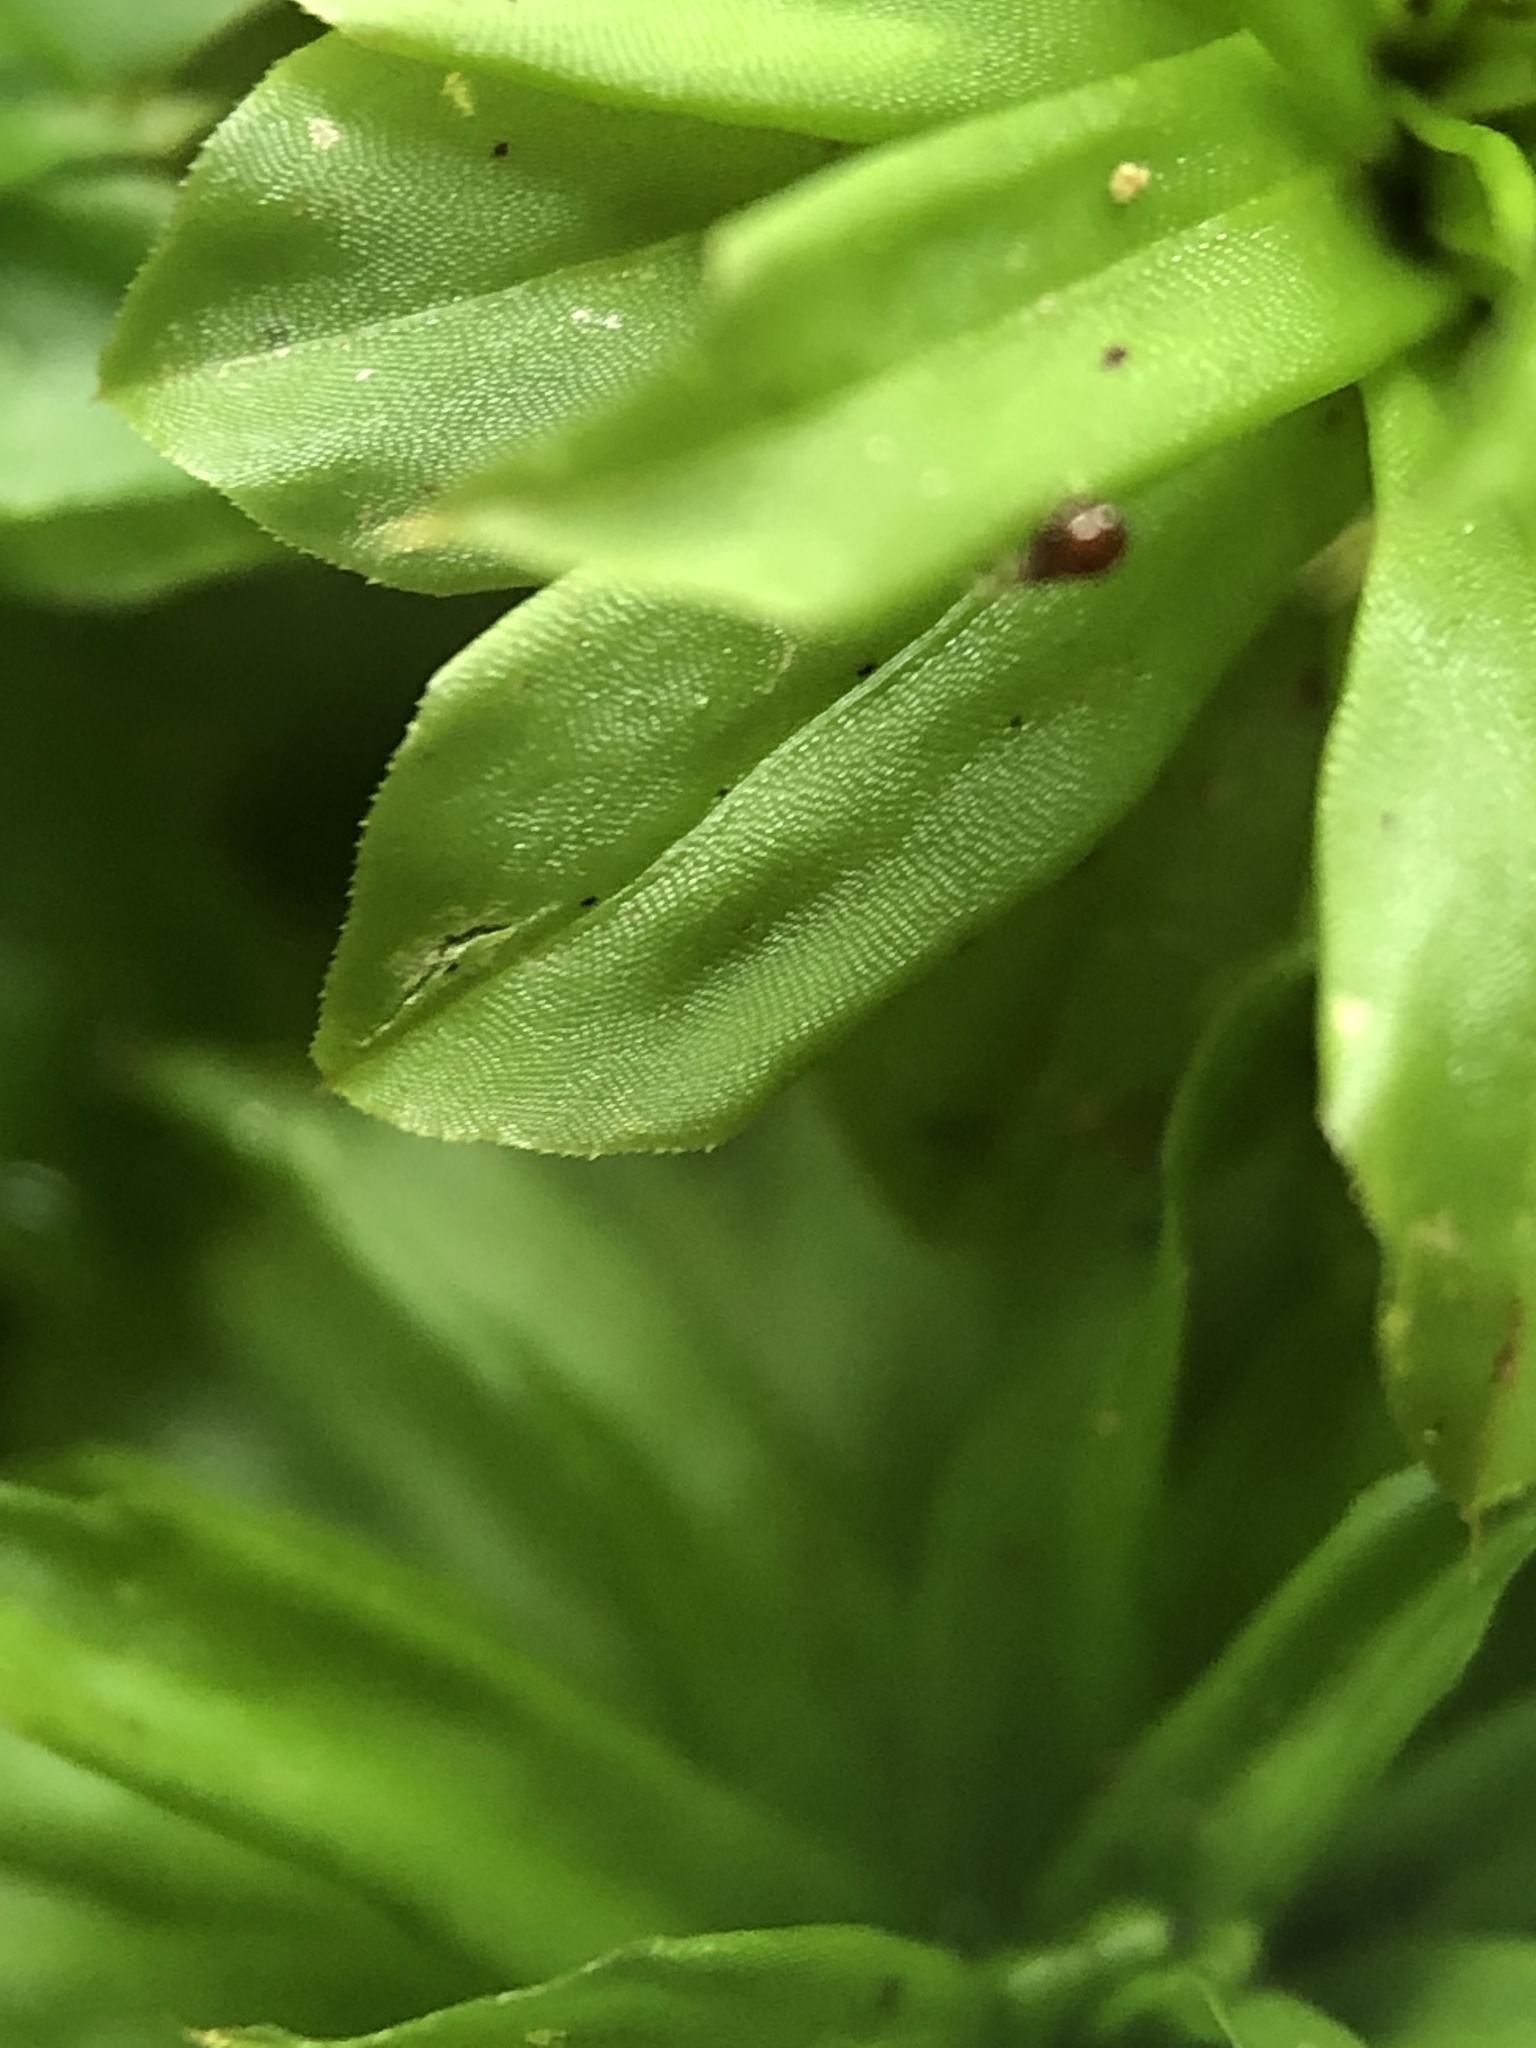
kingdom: Plantae
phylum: Bryophyta
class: Bryopsida
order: Bryales
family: Bryaceae
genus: Rhodobryum
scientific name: Rhodobryum ontariense
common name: Ontario rhodobryum moss
